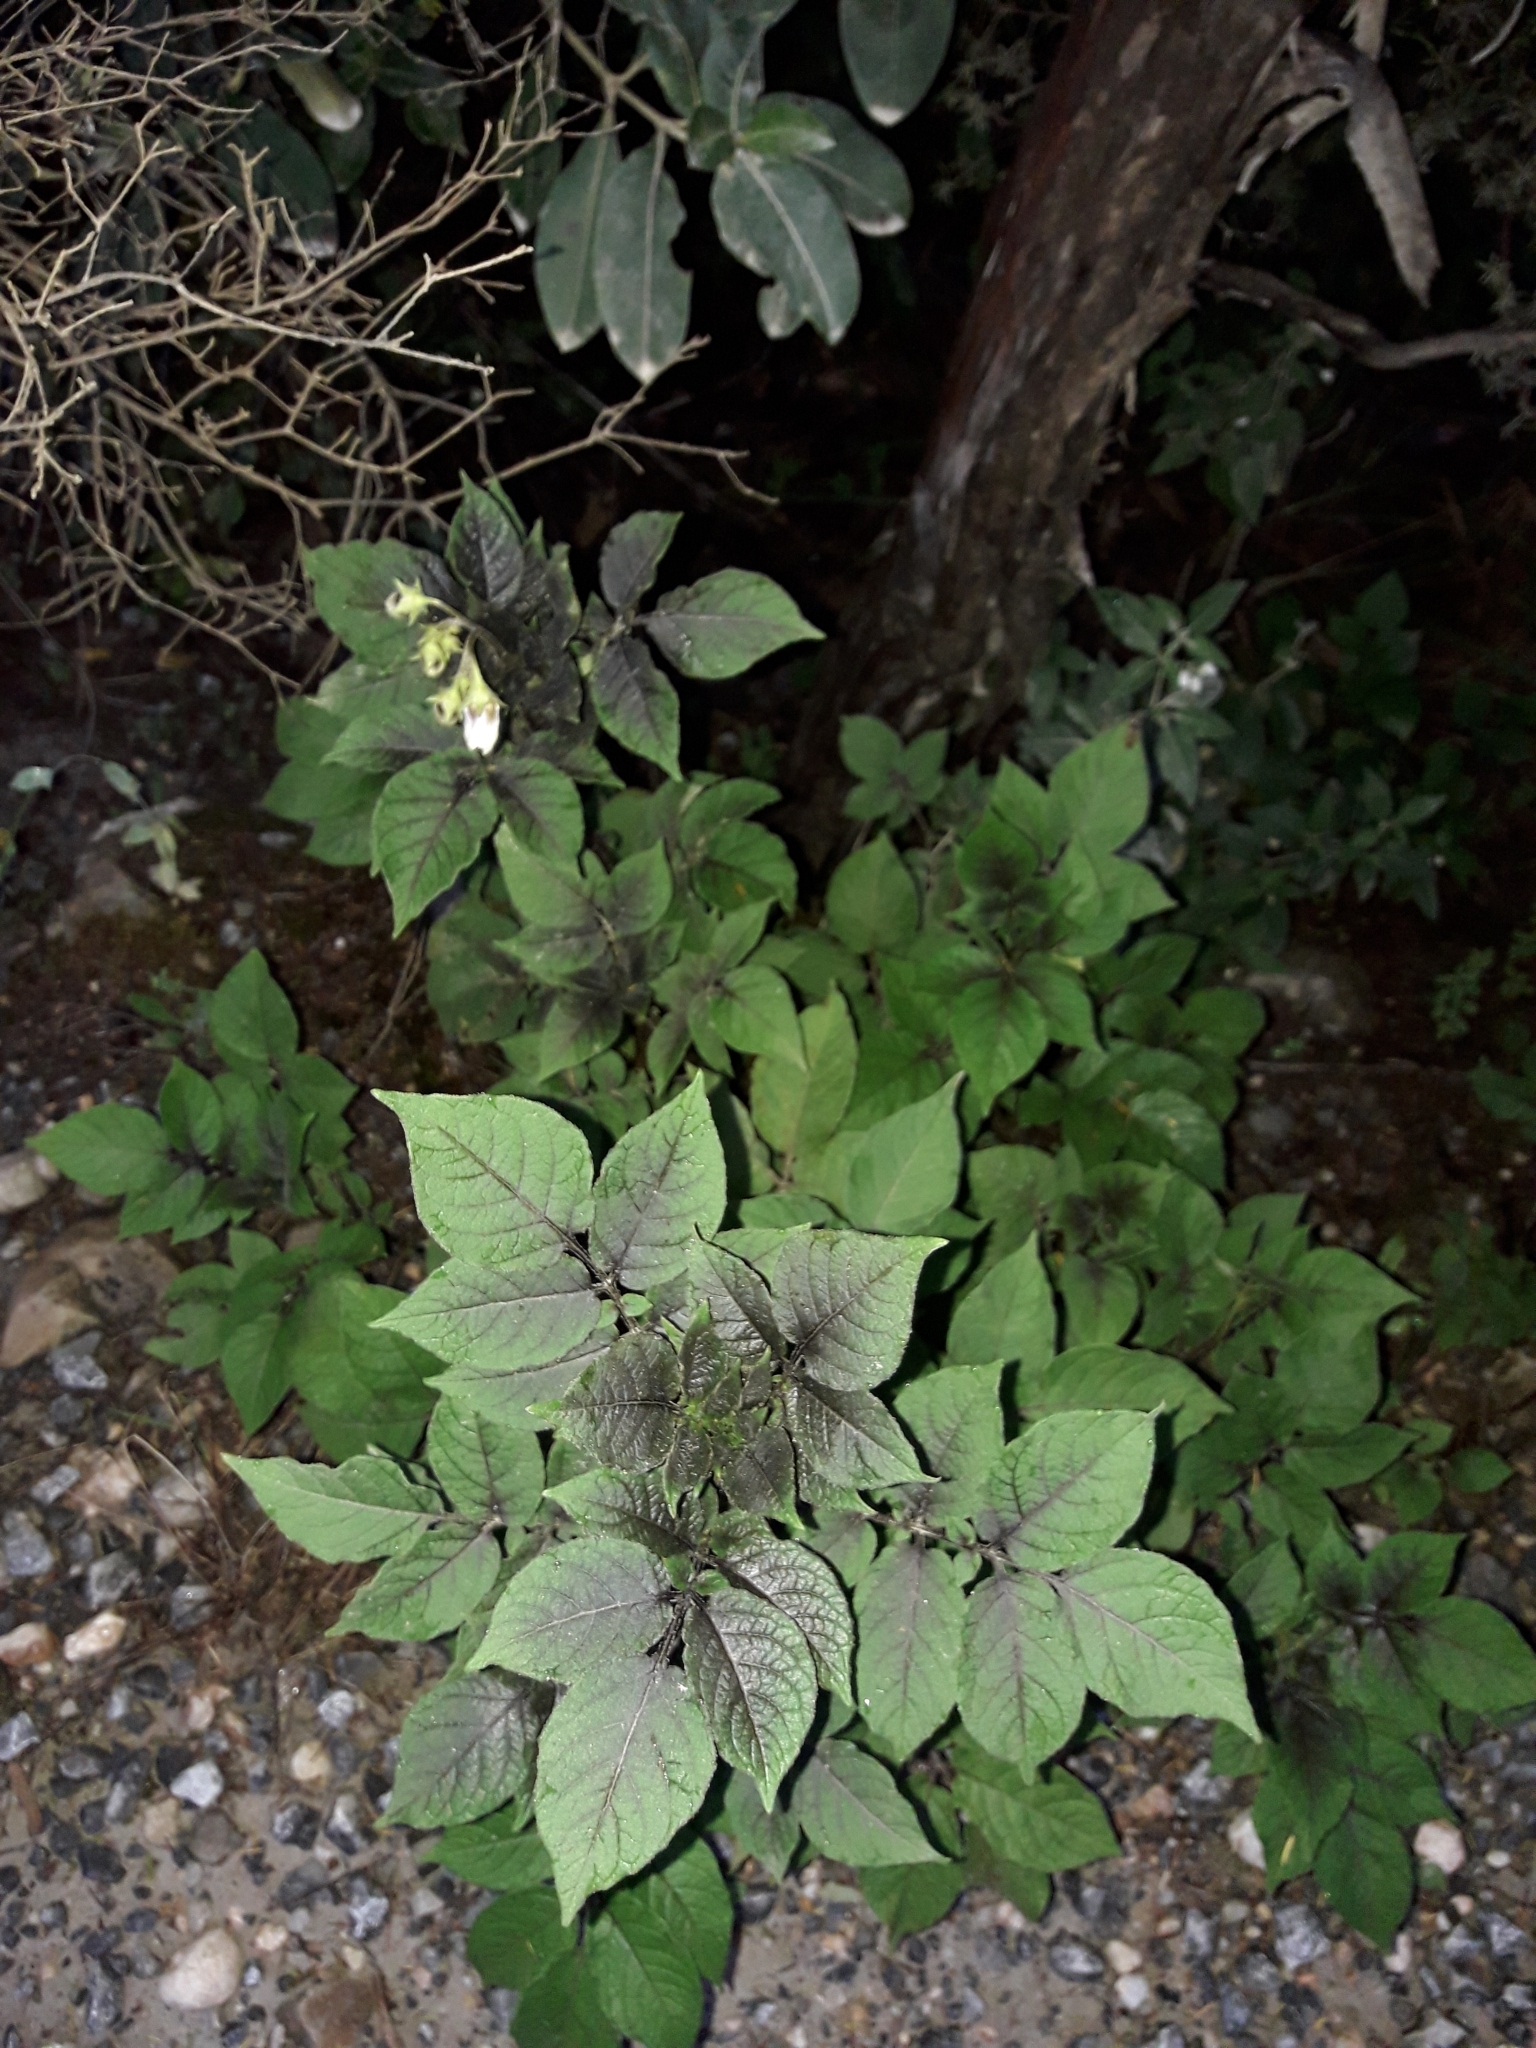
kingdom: Plantae
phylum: Tracheophyta
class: Magnoliopsida
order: Solanales
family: Solanaceae
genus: Solanum
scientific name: Solanum tuberosum
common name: Potato
